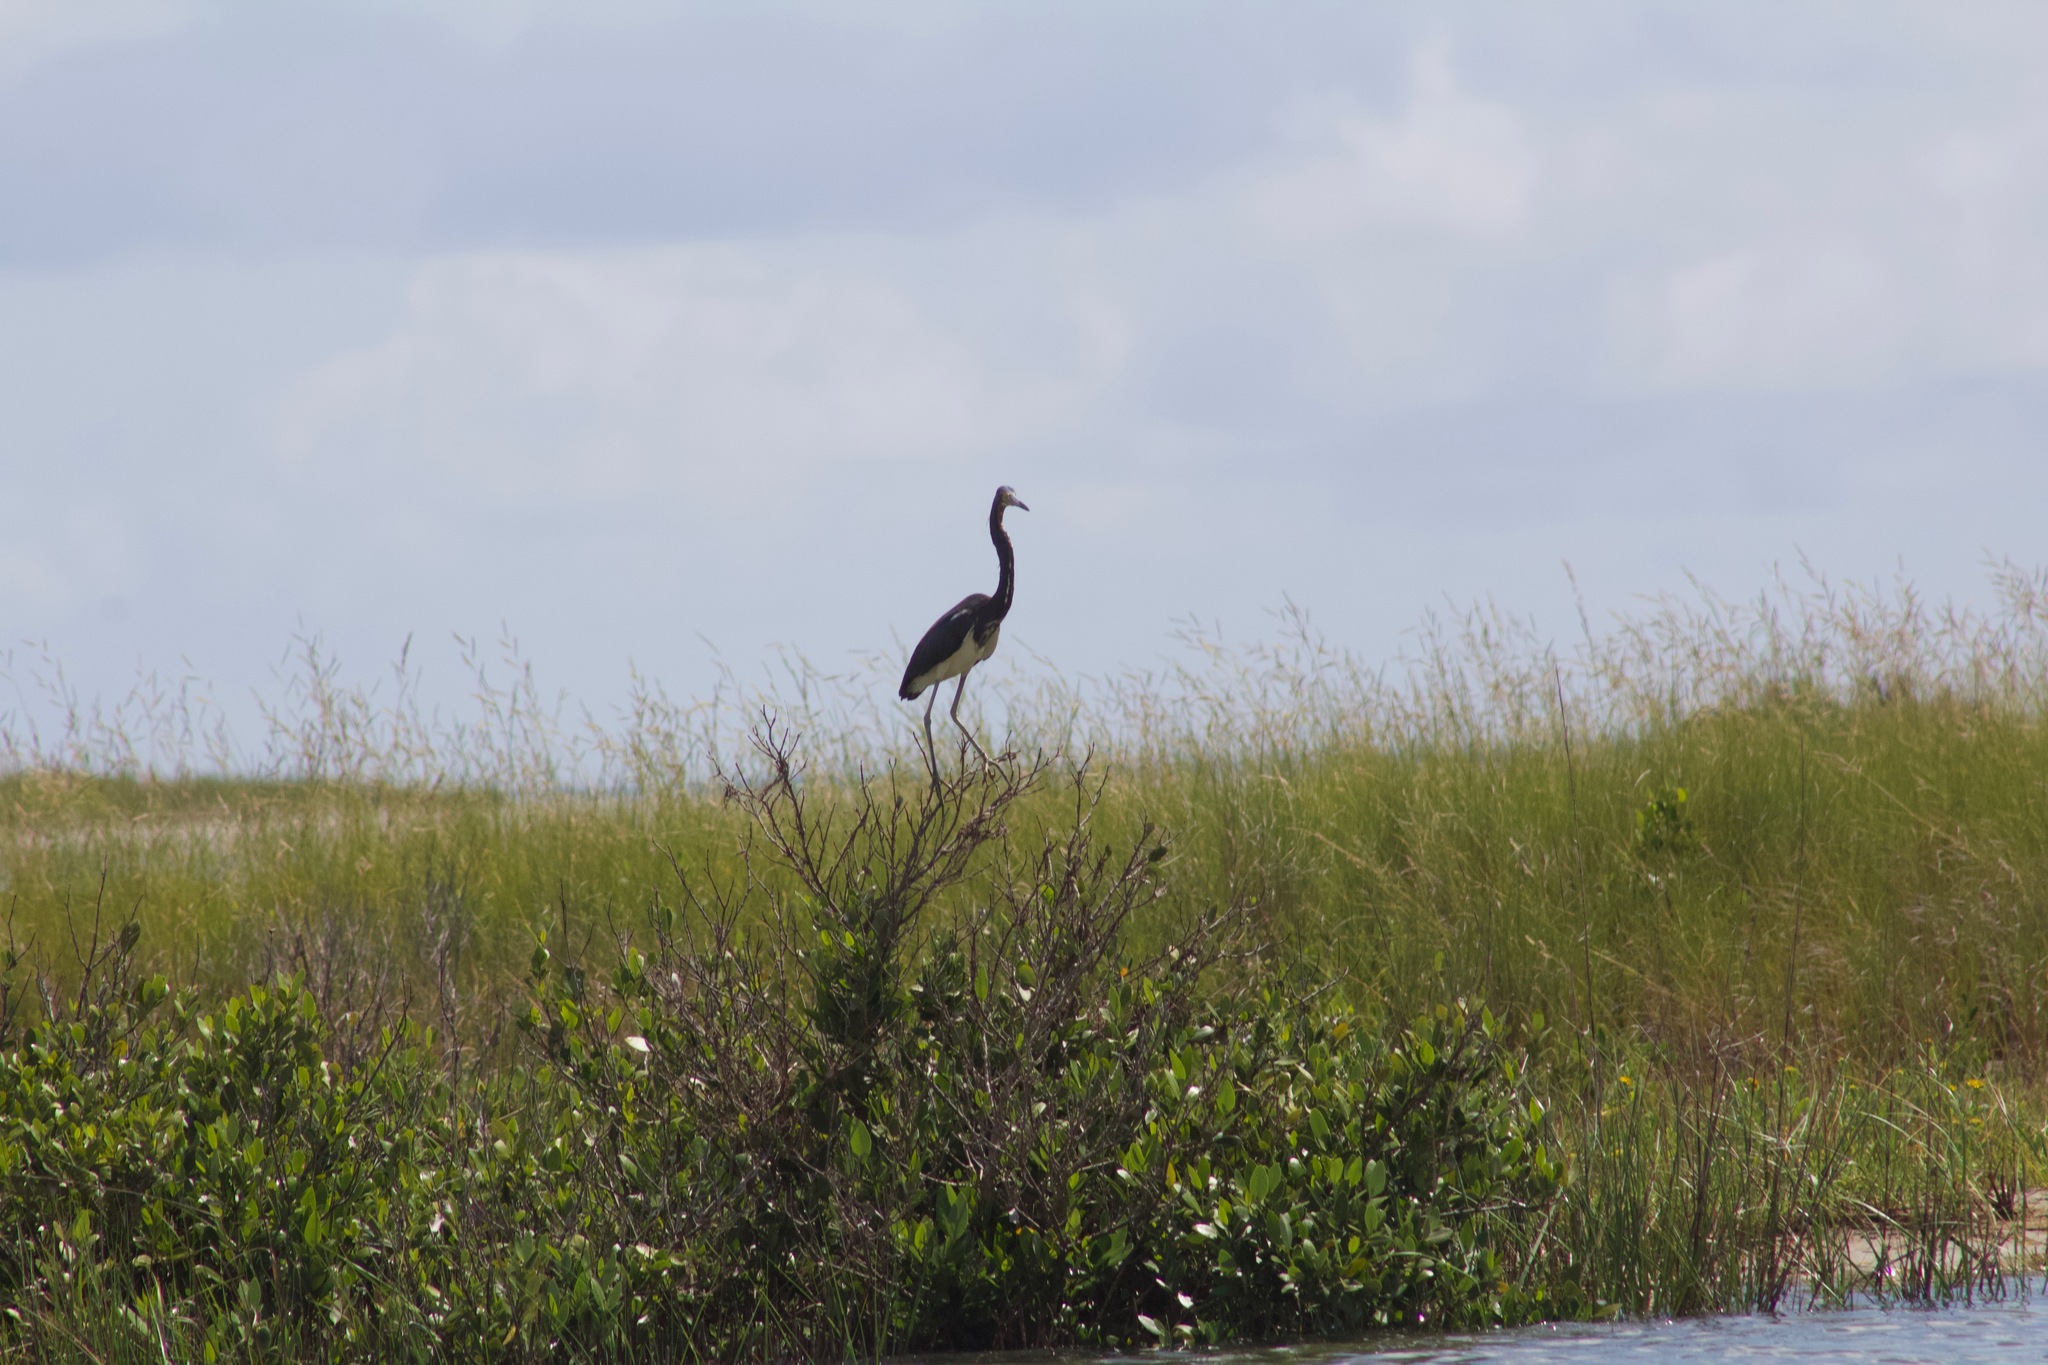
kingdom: Animalia
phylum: Chordata
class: Aves
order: Pelecaniformes
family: Ardeidae
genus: Egretta
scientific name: Egretta tricolor
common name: Tricolored heron
